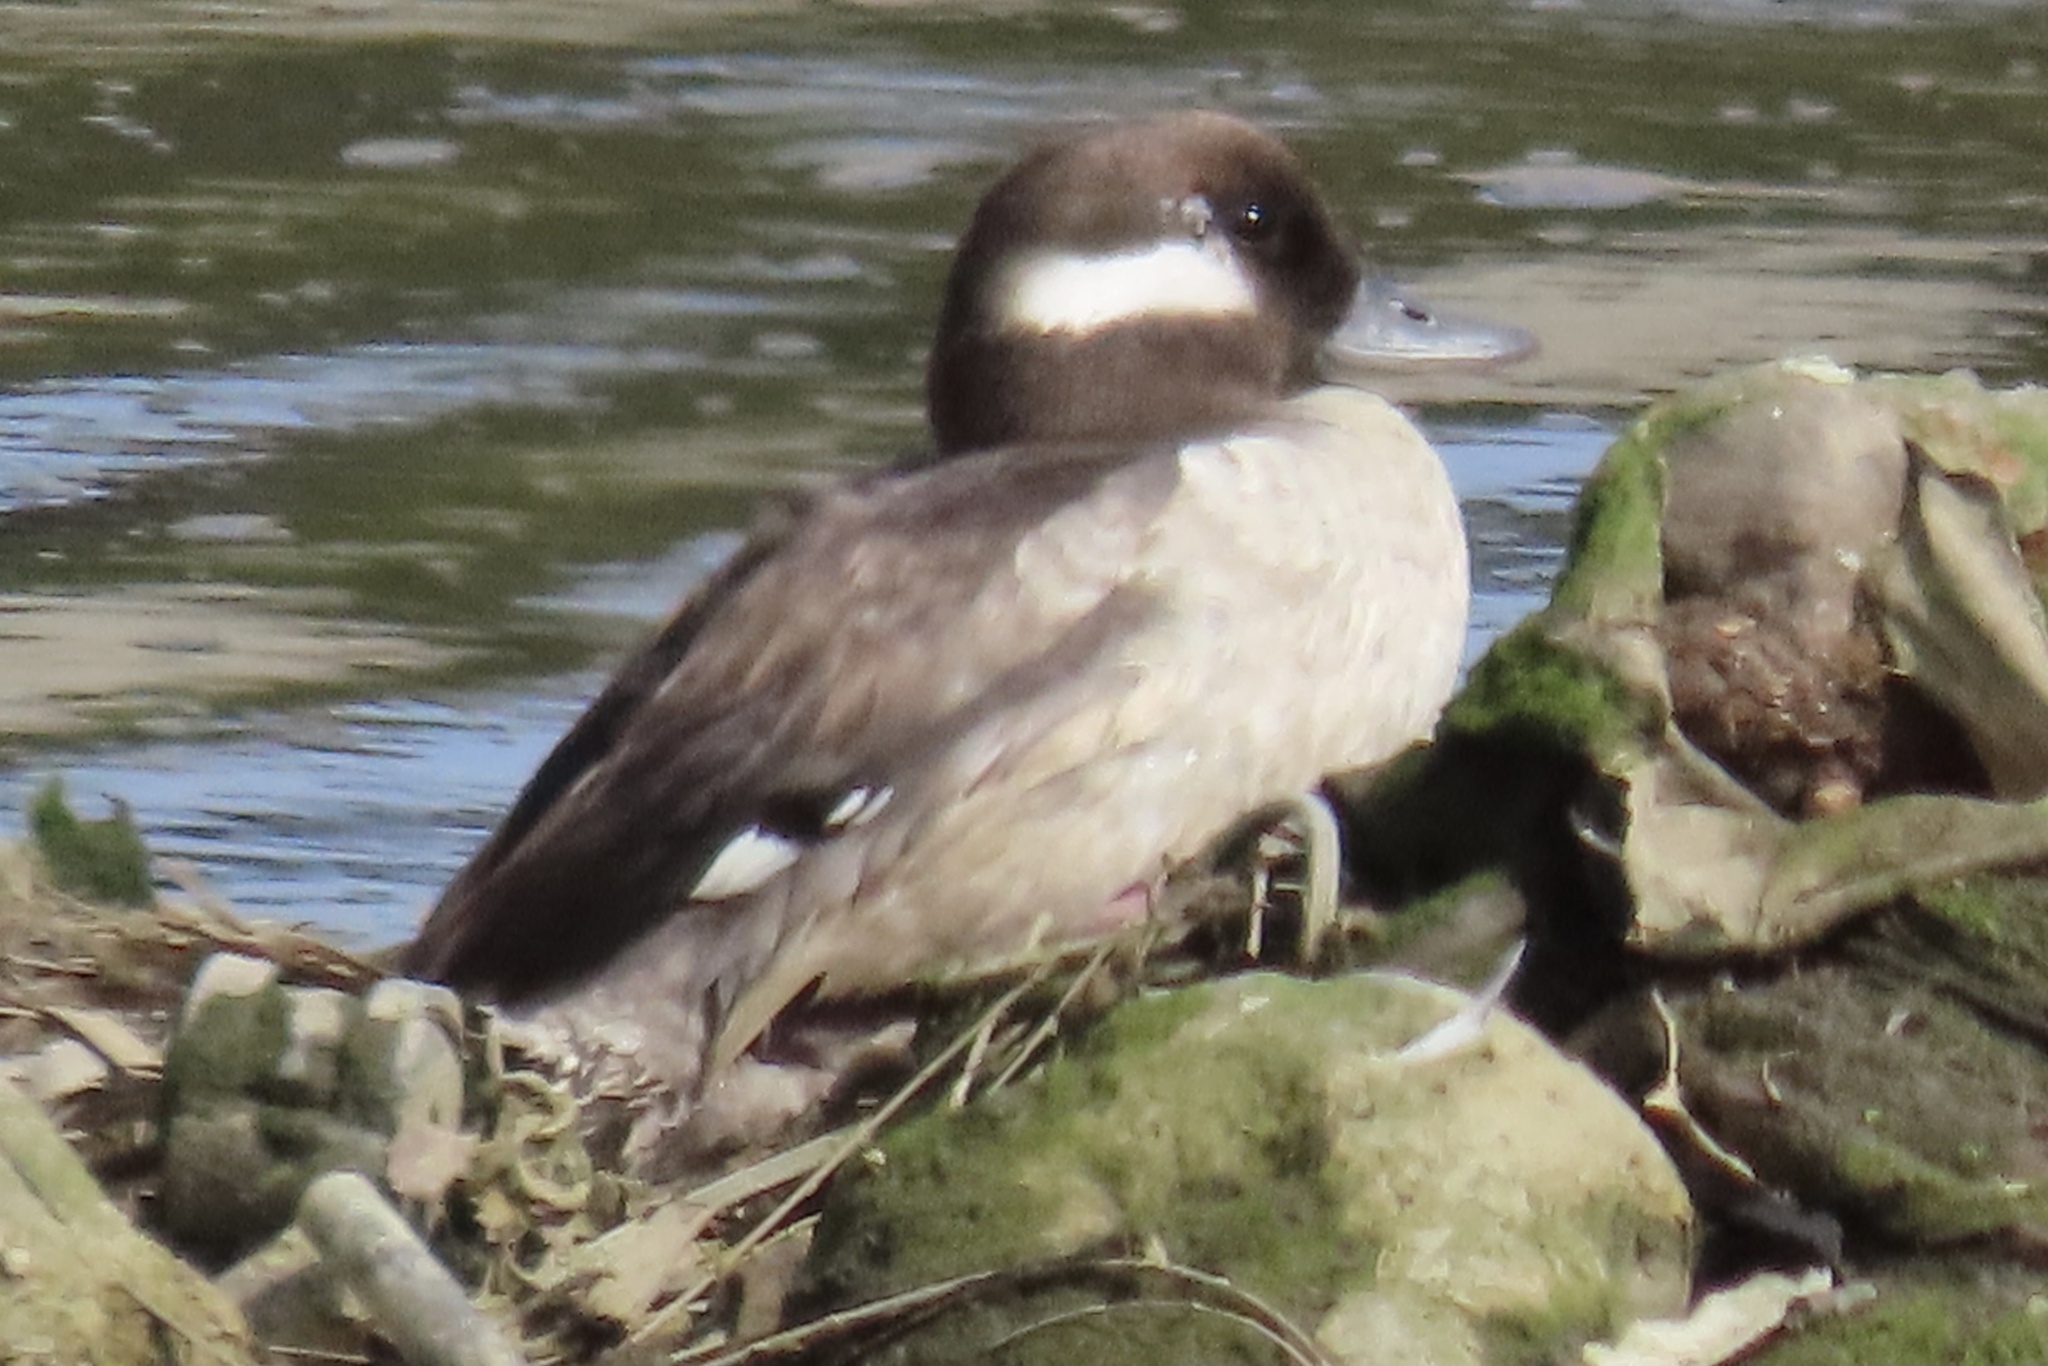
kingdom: Animalia
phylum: Chordata
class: Aves
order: Anseriformes
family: Anatidae
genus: Bucephala
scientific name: Bucephala albeola
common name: Bufflehead
